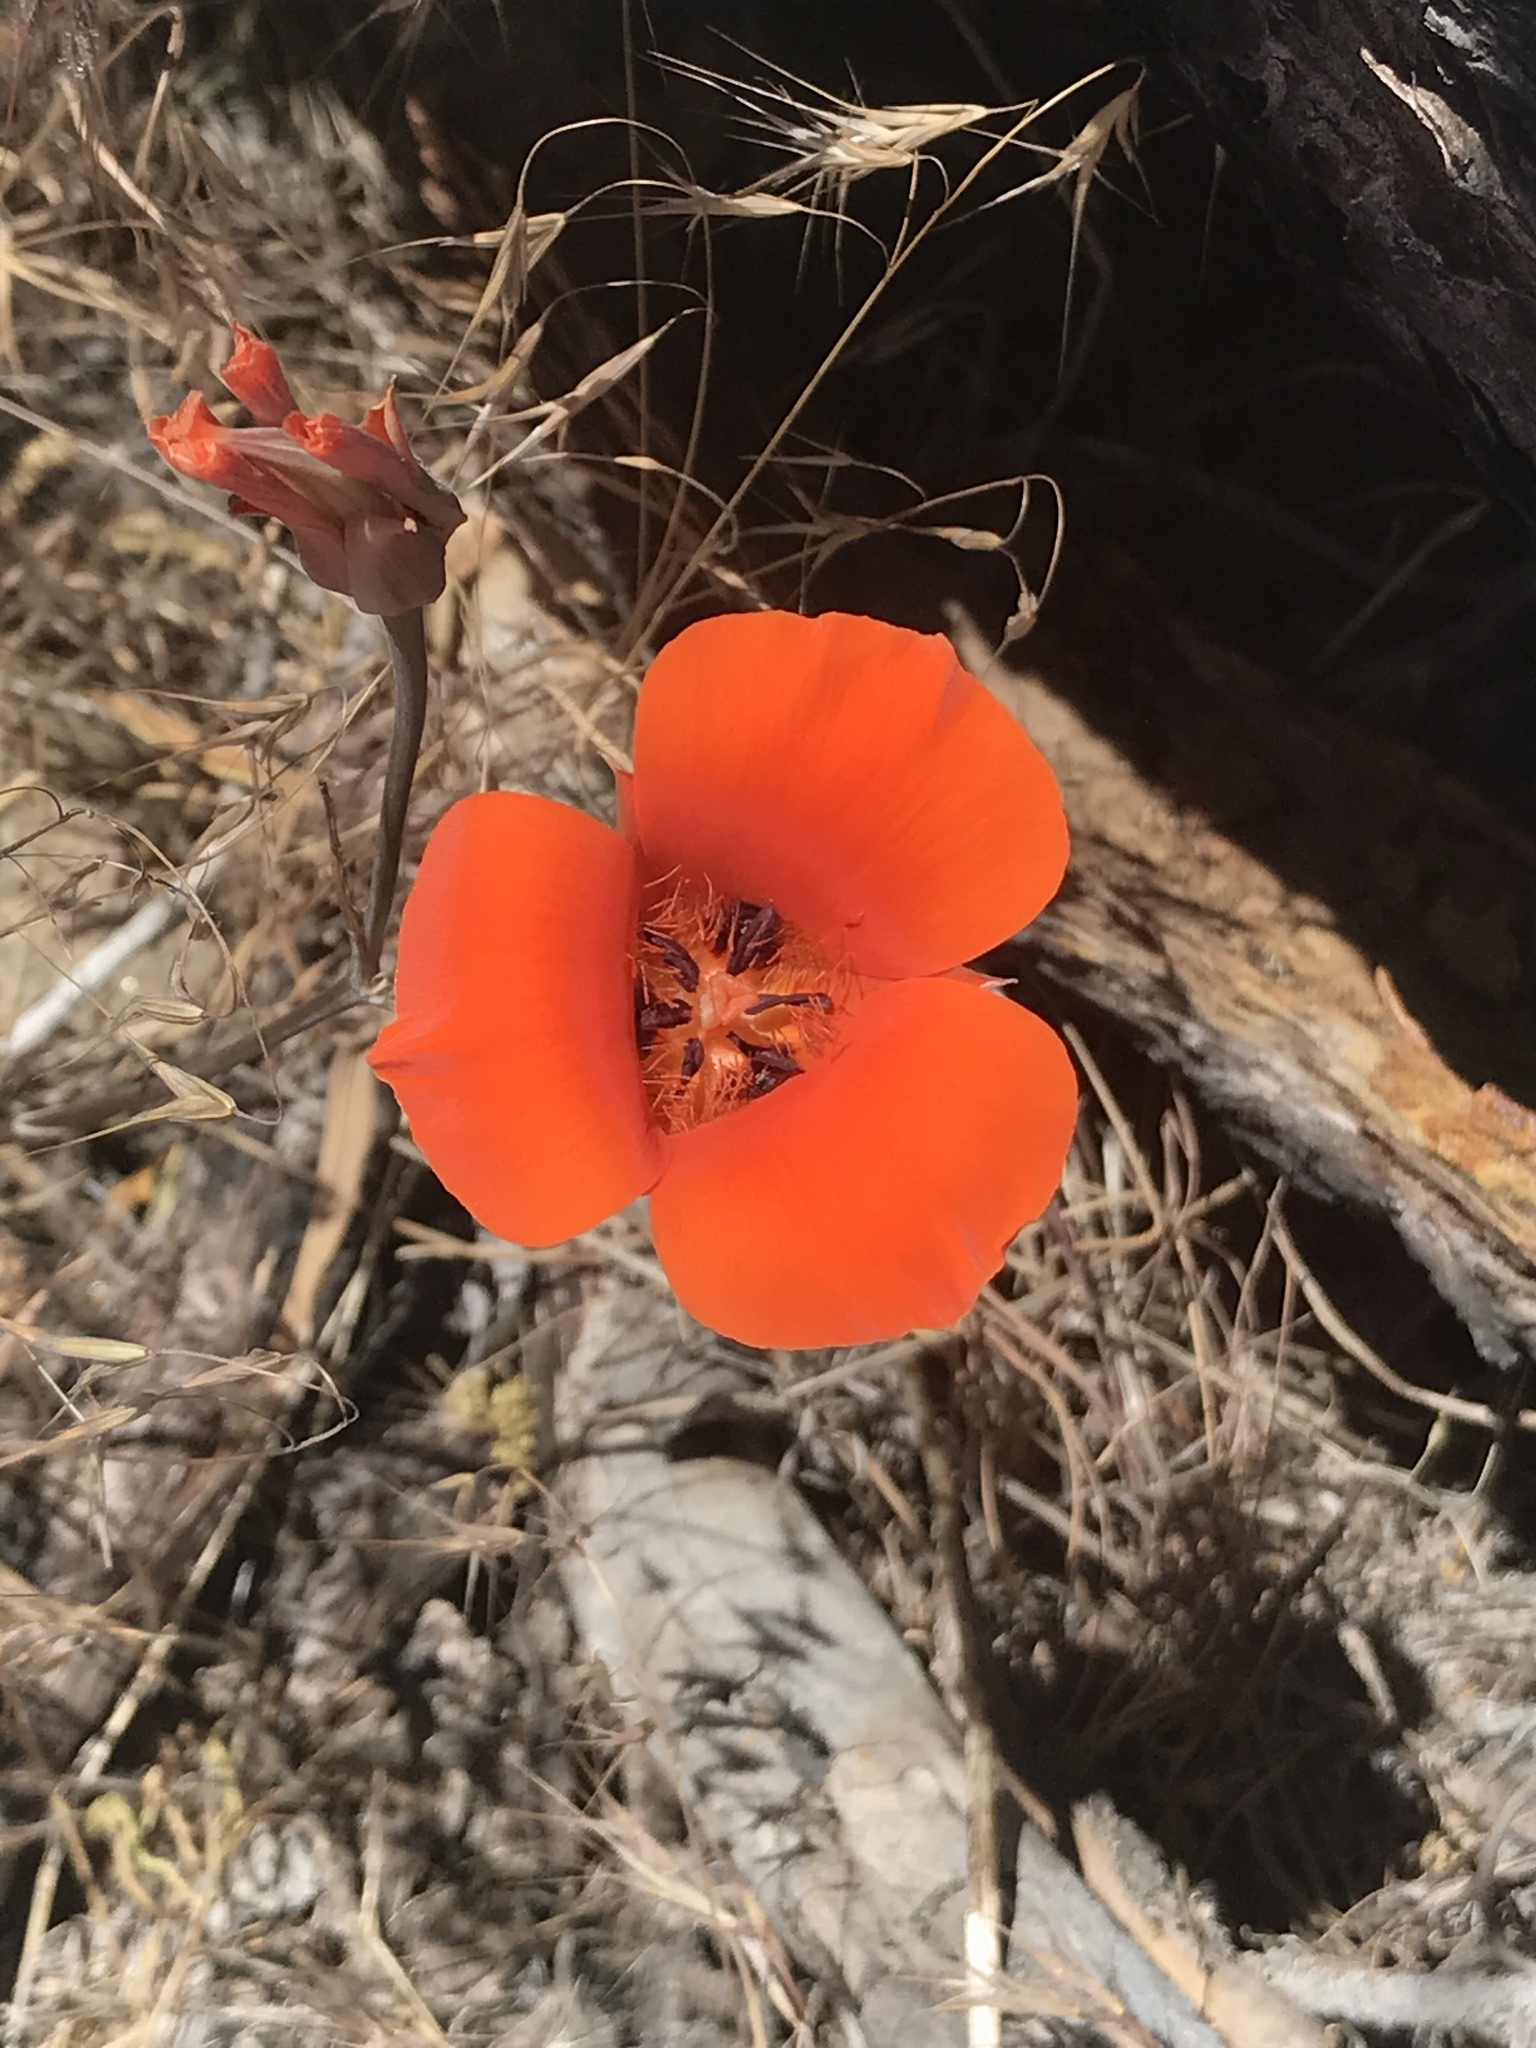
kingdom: Plantae
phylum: Tracheophyta
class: Liliopsida
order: Liliales
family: Liliaceae
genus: Calochortus
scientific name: Calochortus kennedyi
